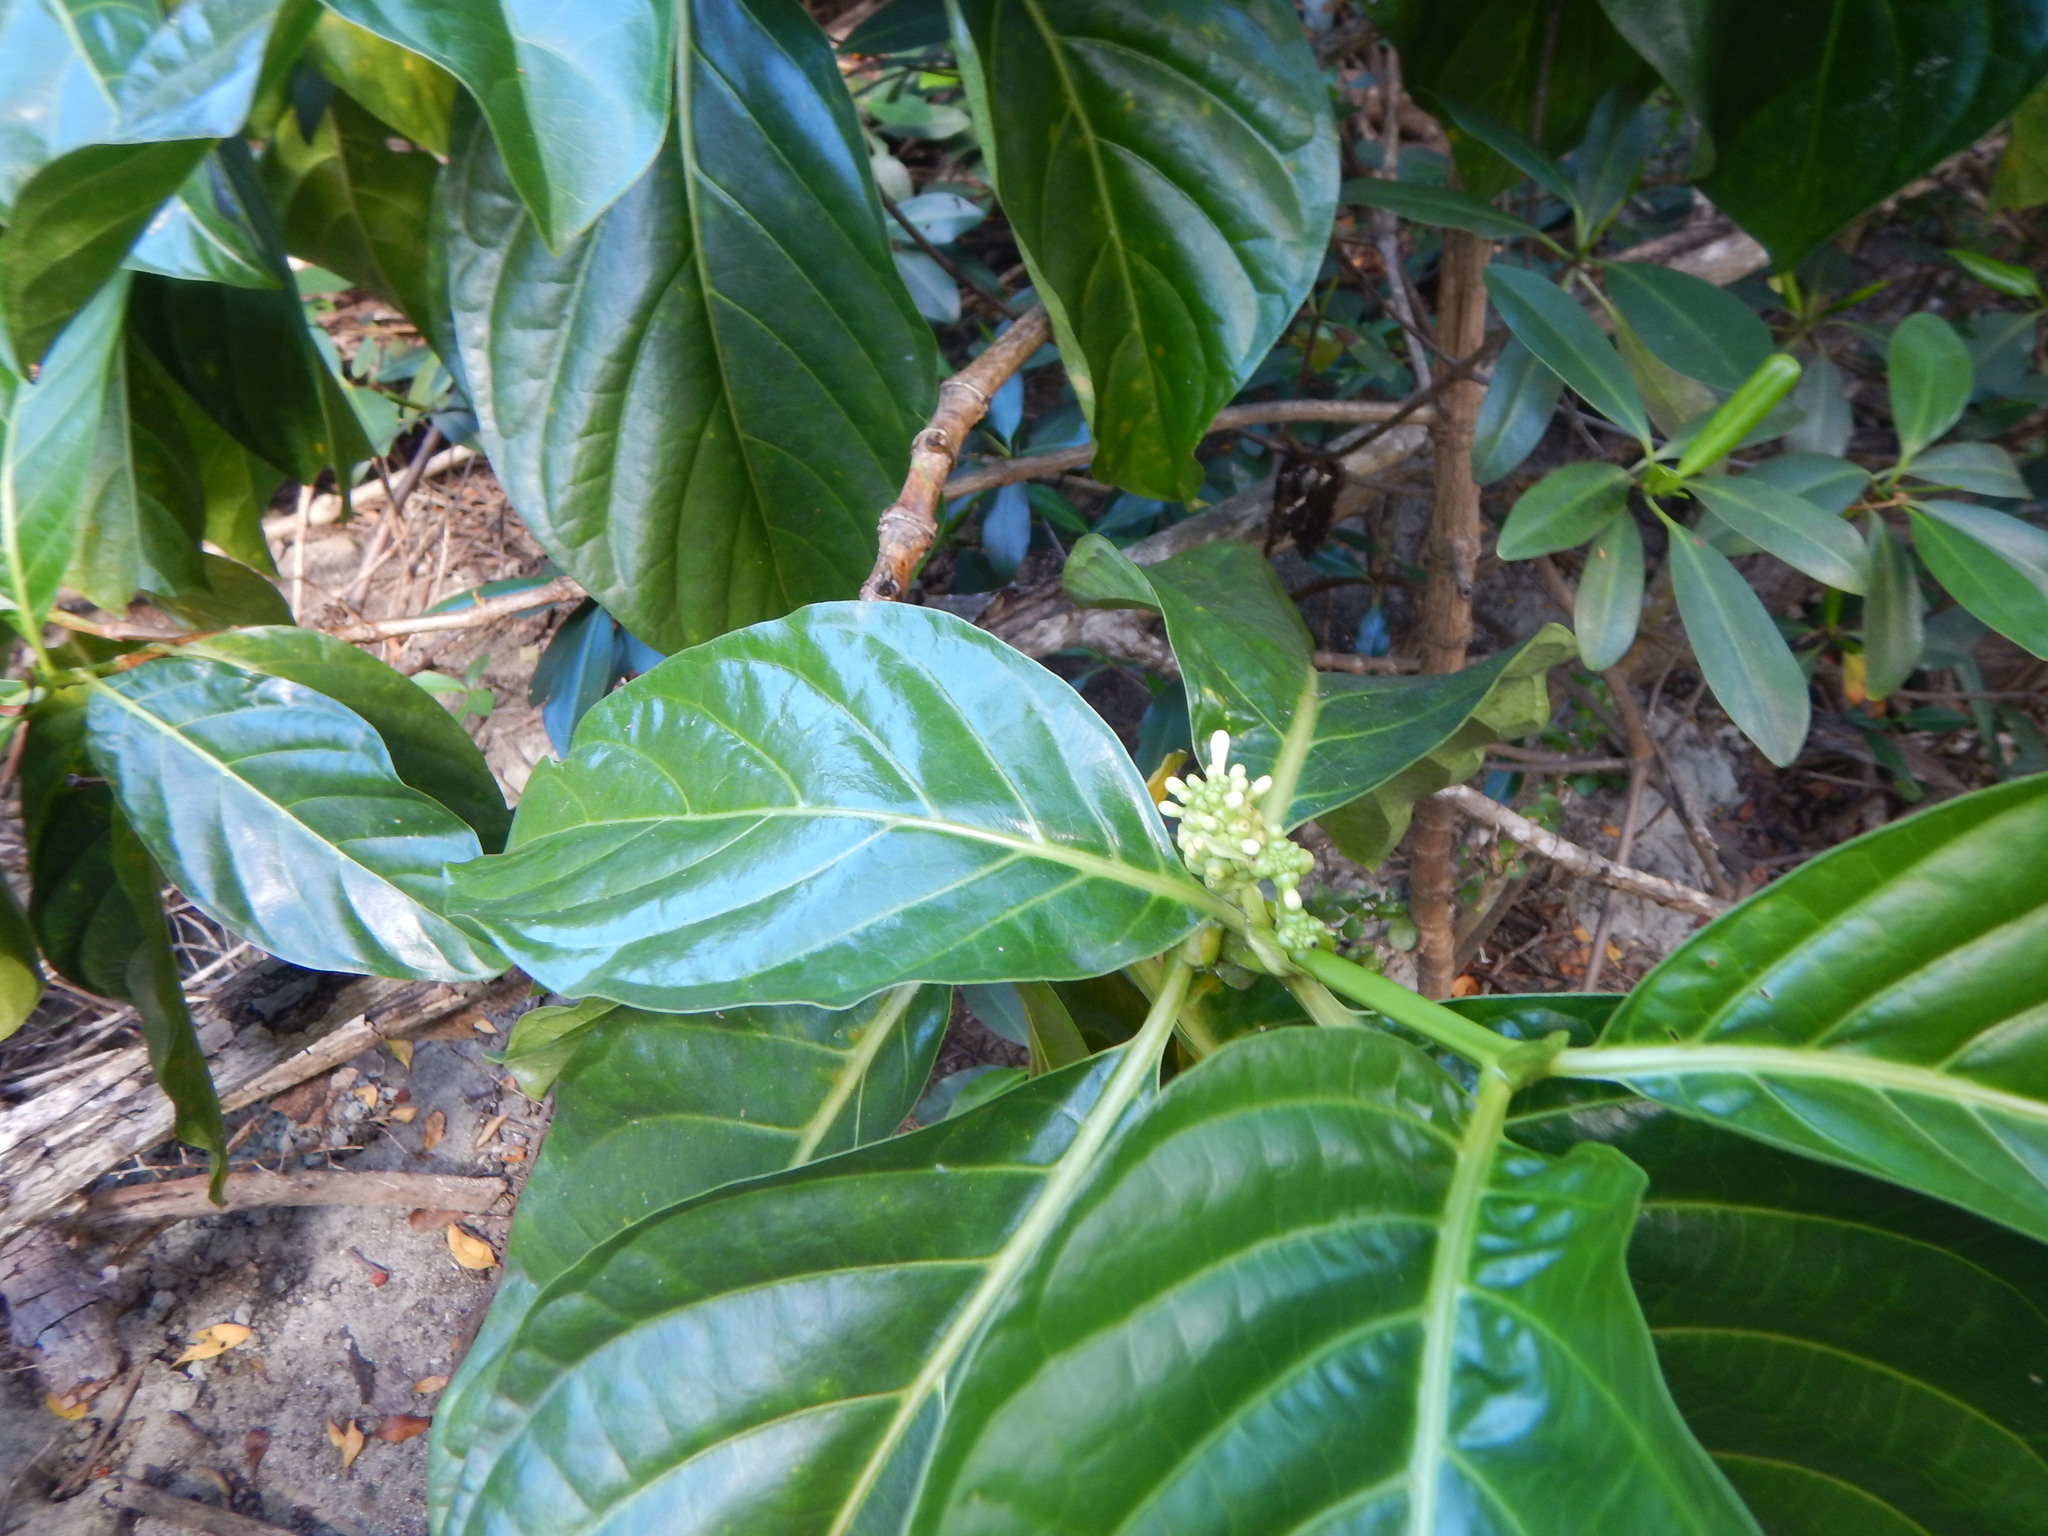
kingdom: Plantae
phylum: Tracheophyta
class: Magnoliopsida
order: Gentianales
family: Rubiaceae
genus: Morinda
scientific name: Morinda citrifolia
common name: Indian-mulberry
